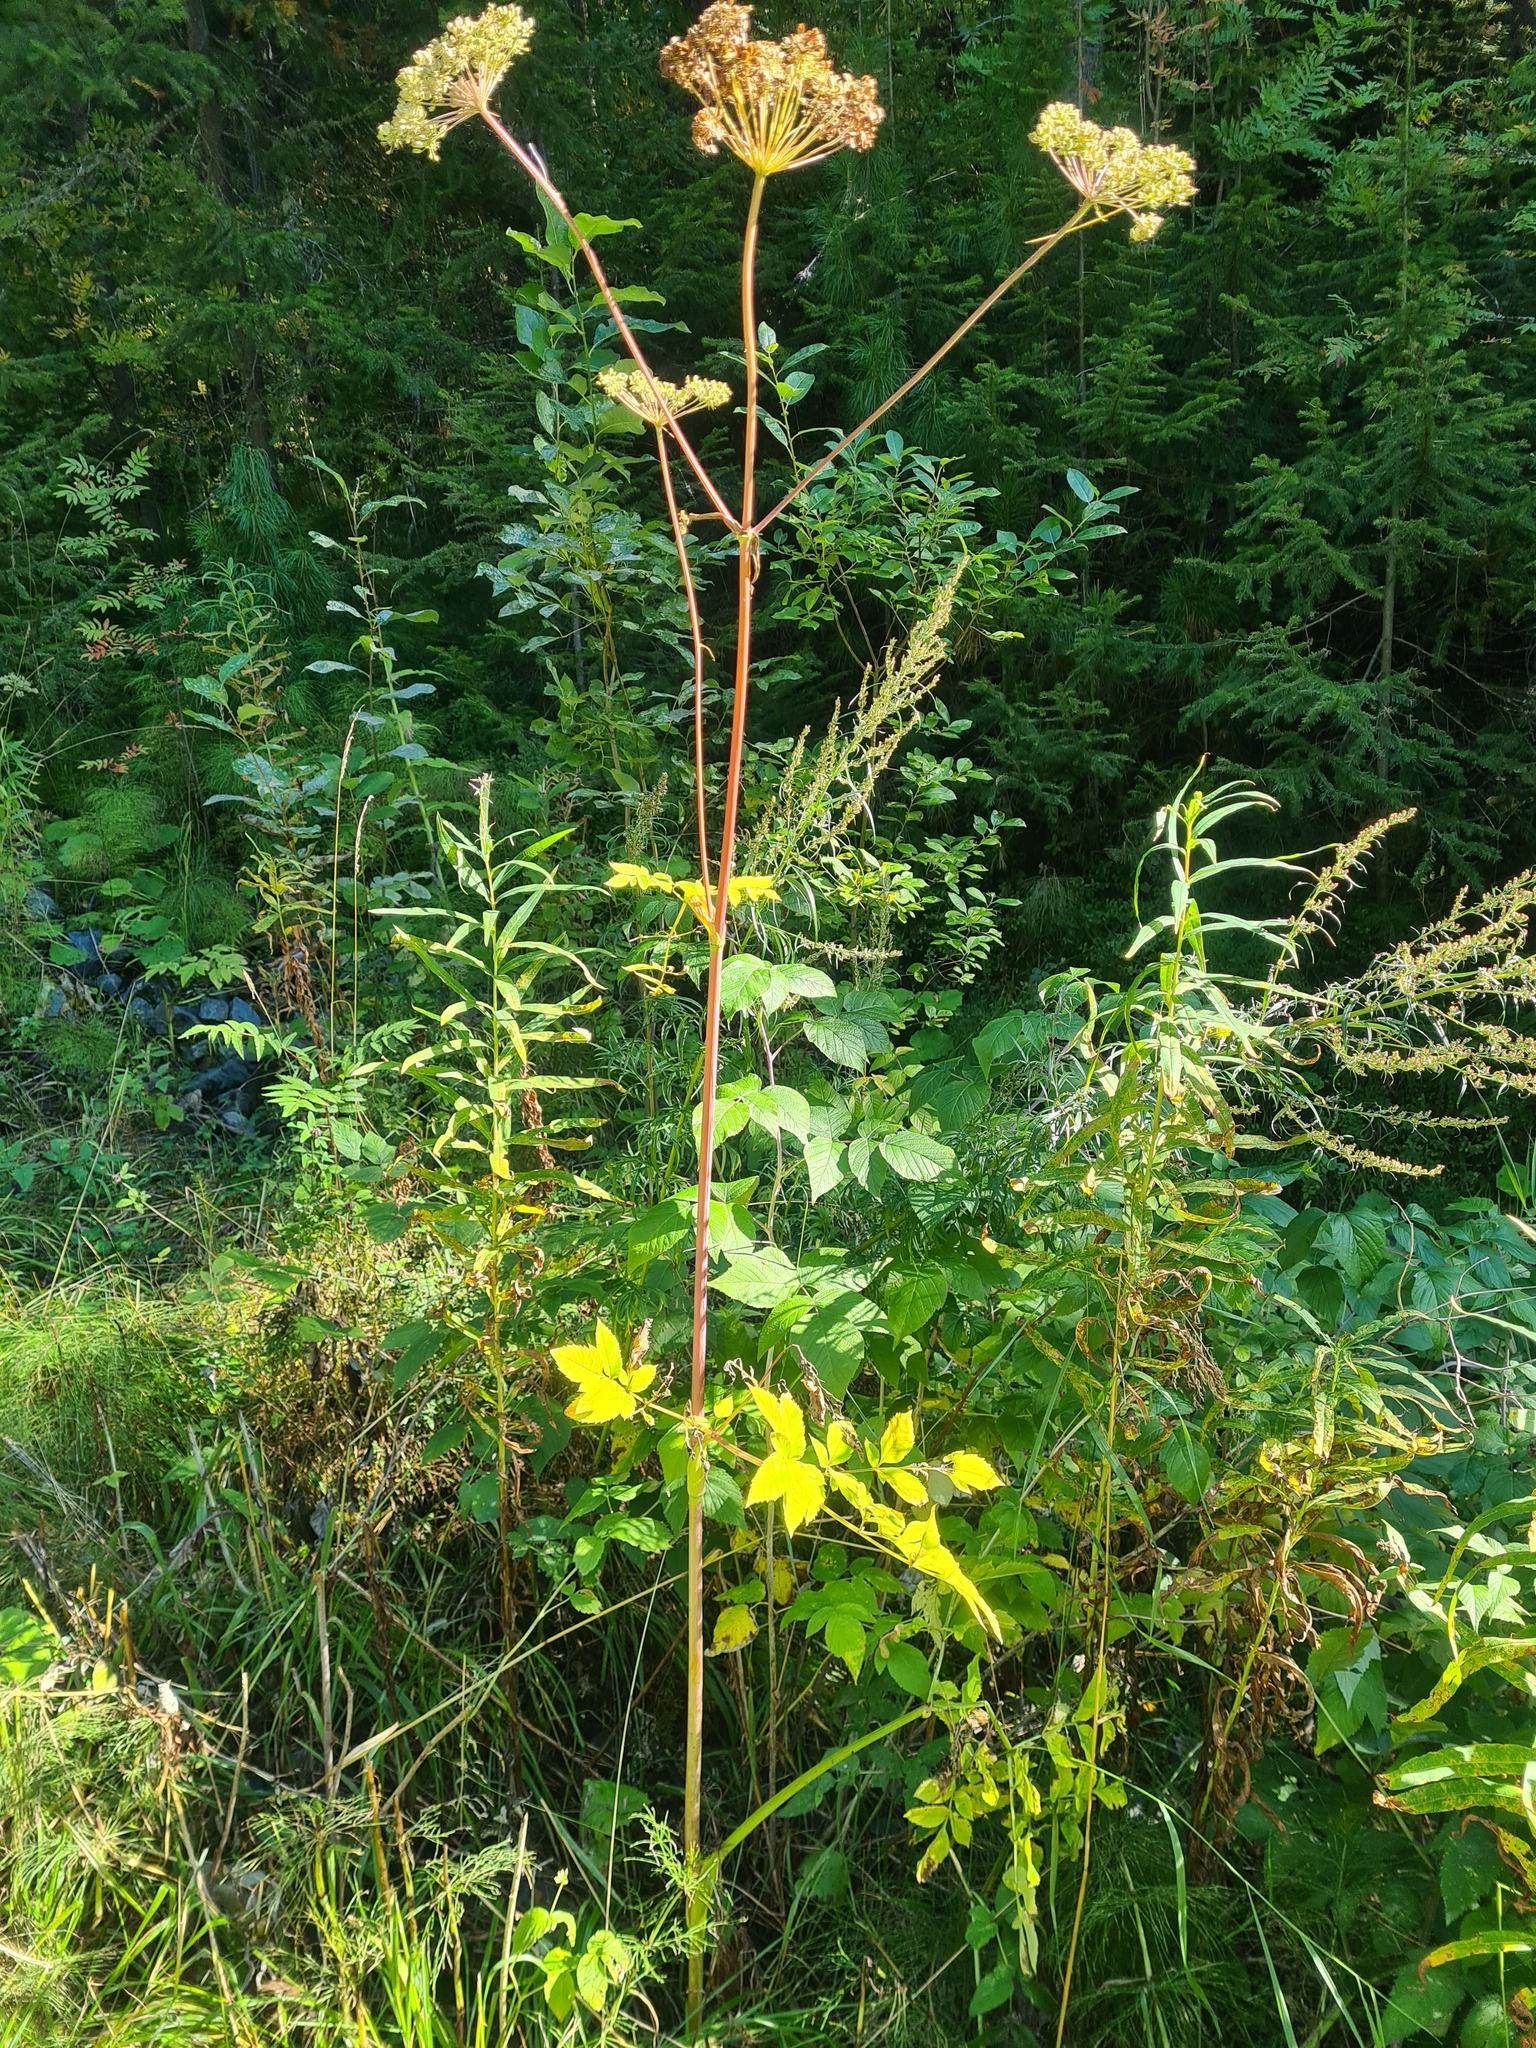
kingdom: Plantae
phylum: Tracheophyta
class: Magnoliopsida
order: Apiales
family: Apiaceae
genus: Angelica
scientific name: Angelica sylvestris
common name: Wild angelica
